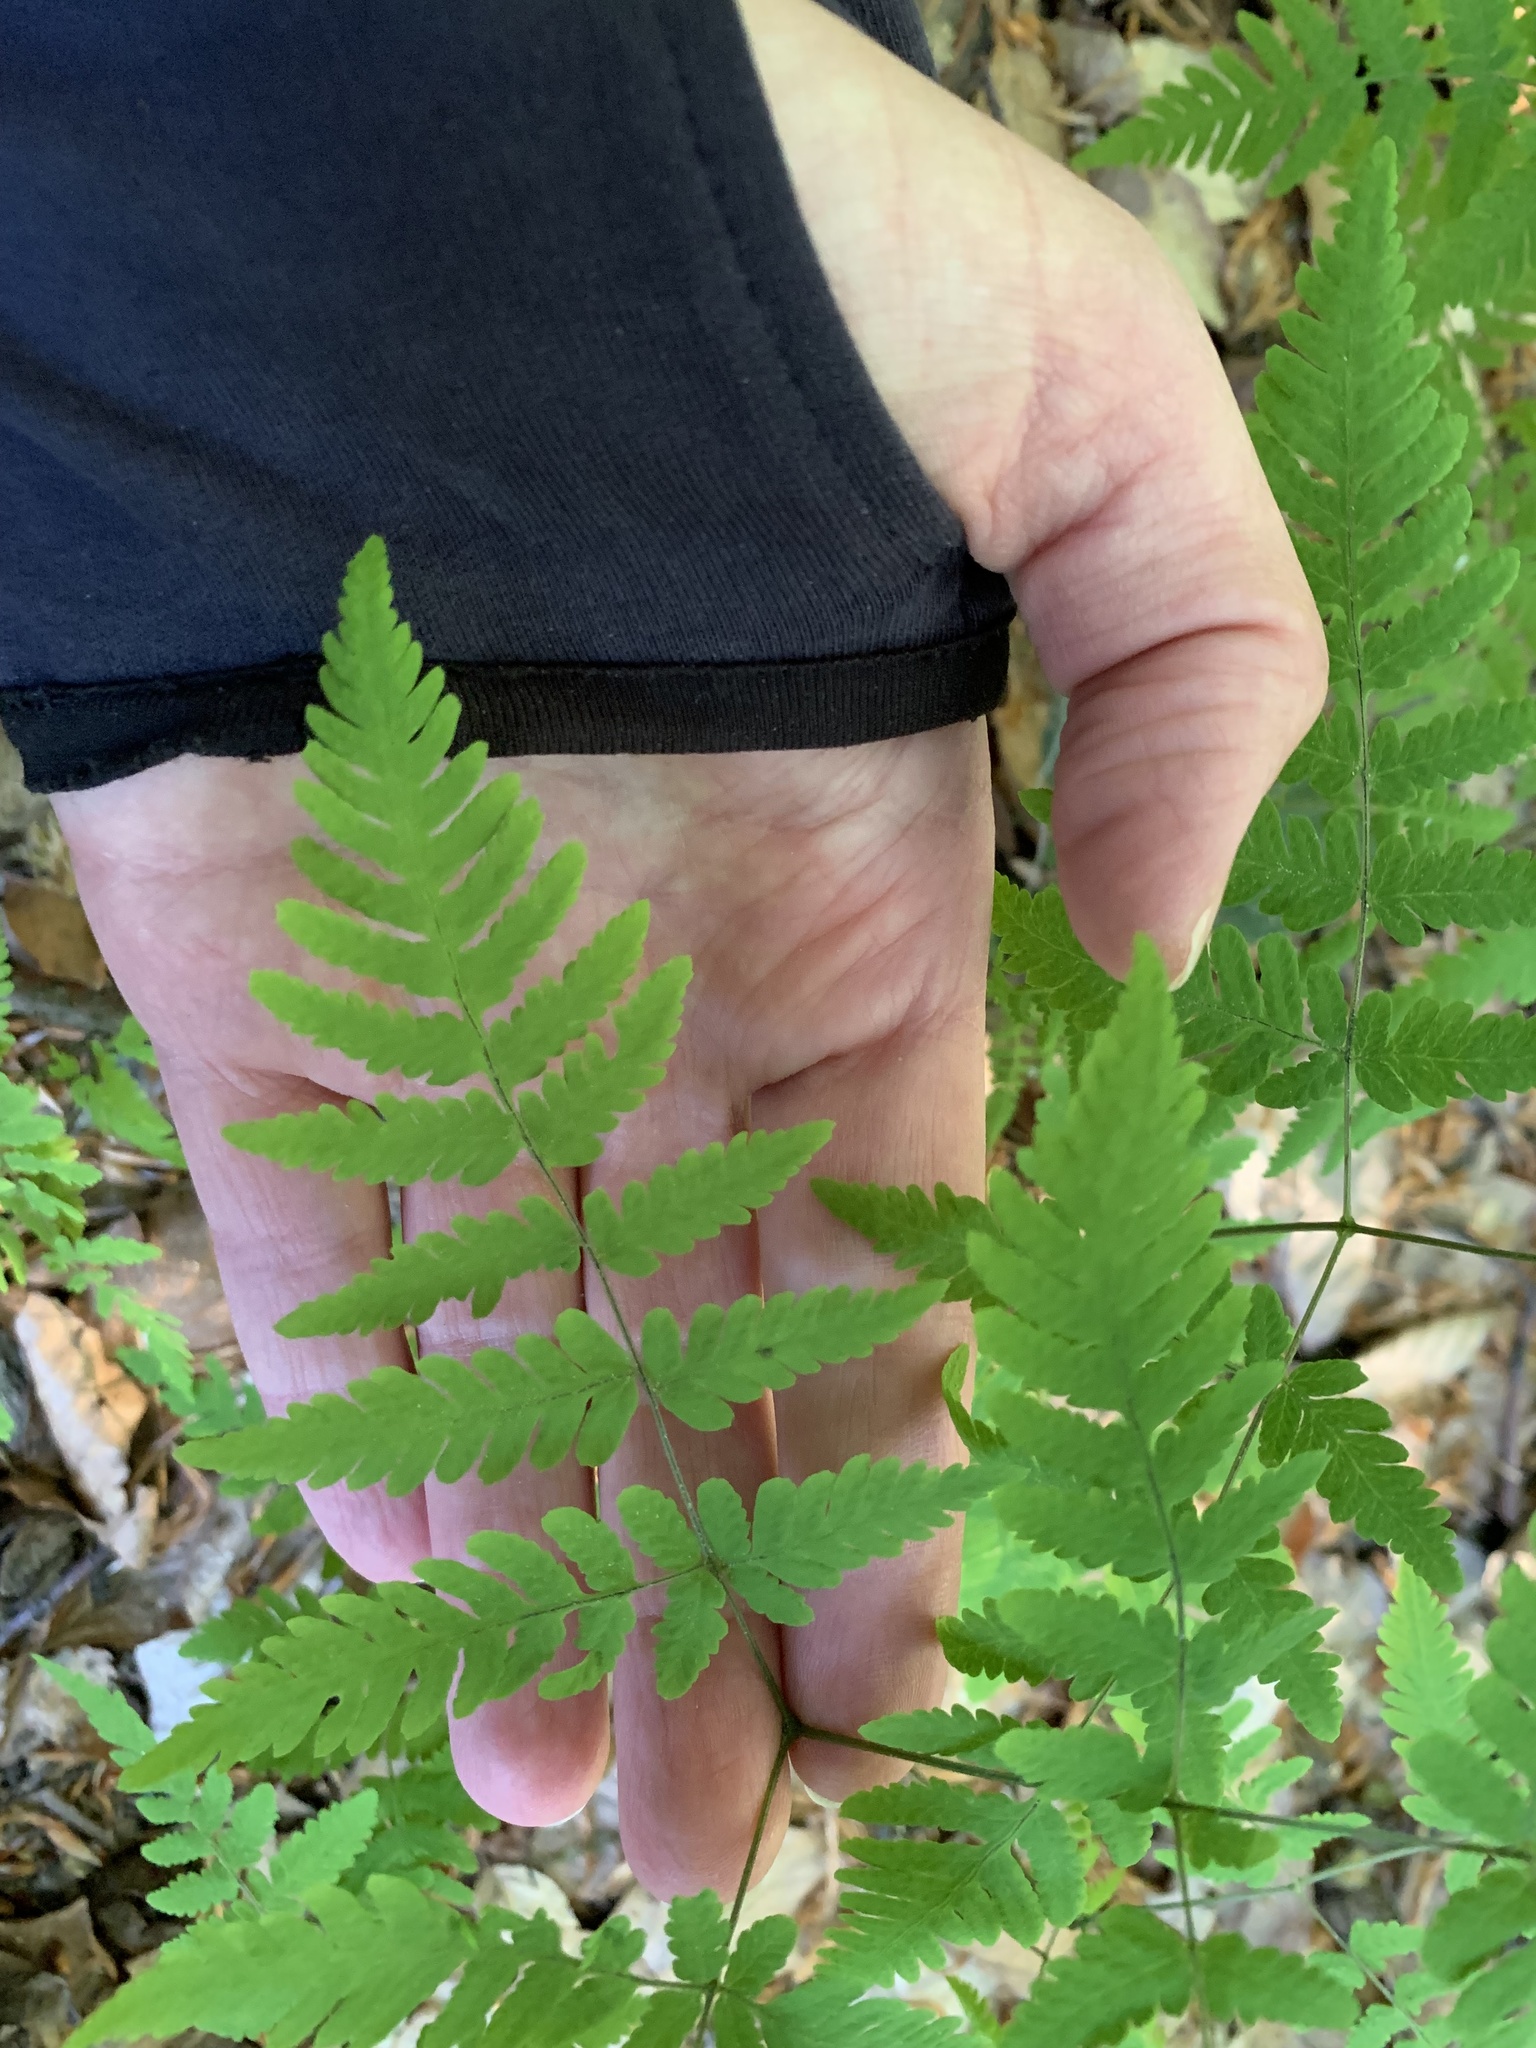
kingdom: Plantae
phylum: Tracheophyta
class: Polypodiopsida
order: Polypodiales
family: Cystopteridaceae
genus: Gymnocarpium
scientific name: Gymnocarpium dryopteris
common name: Oak fern
